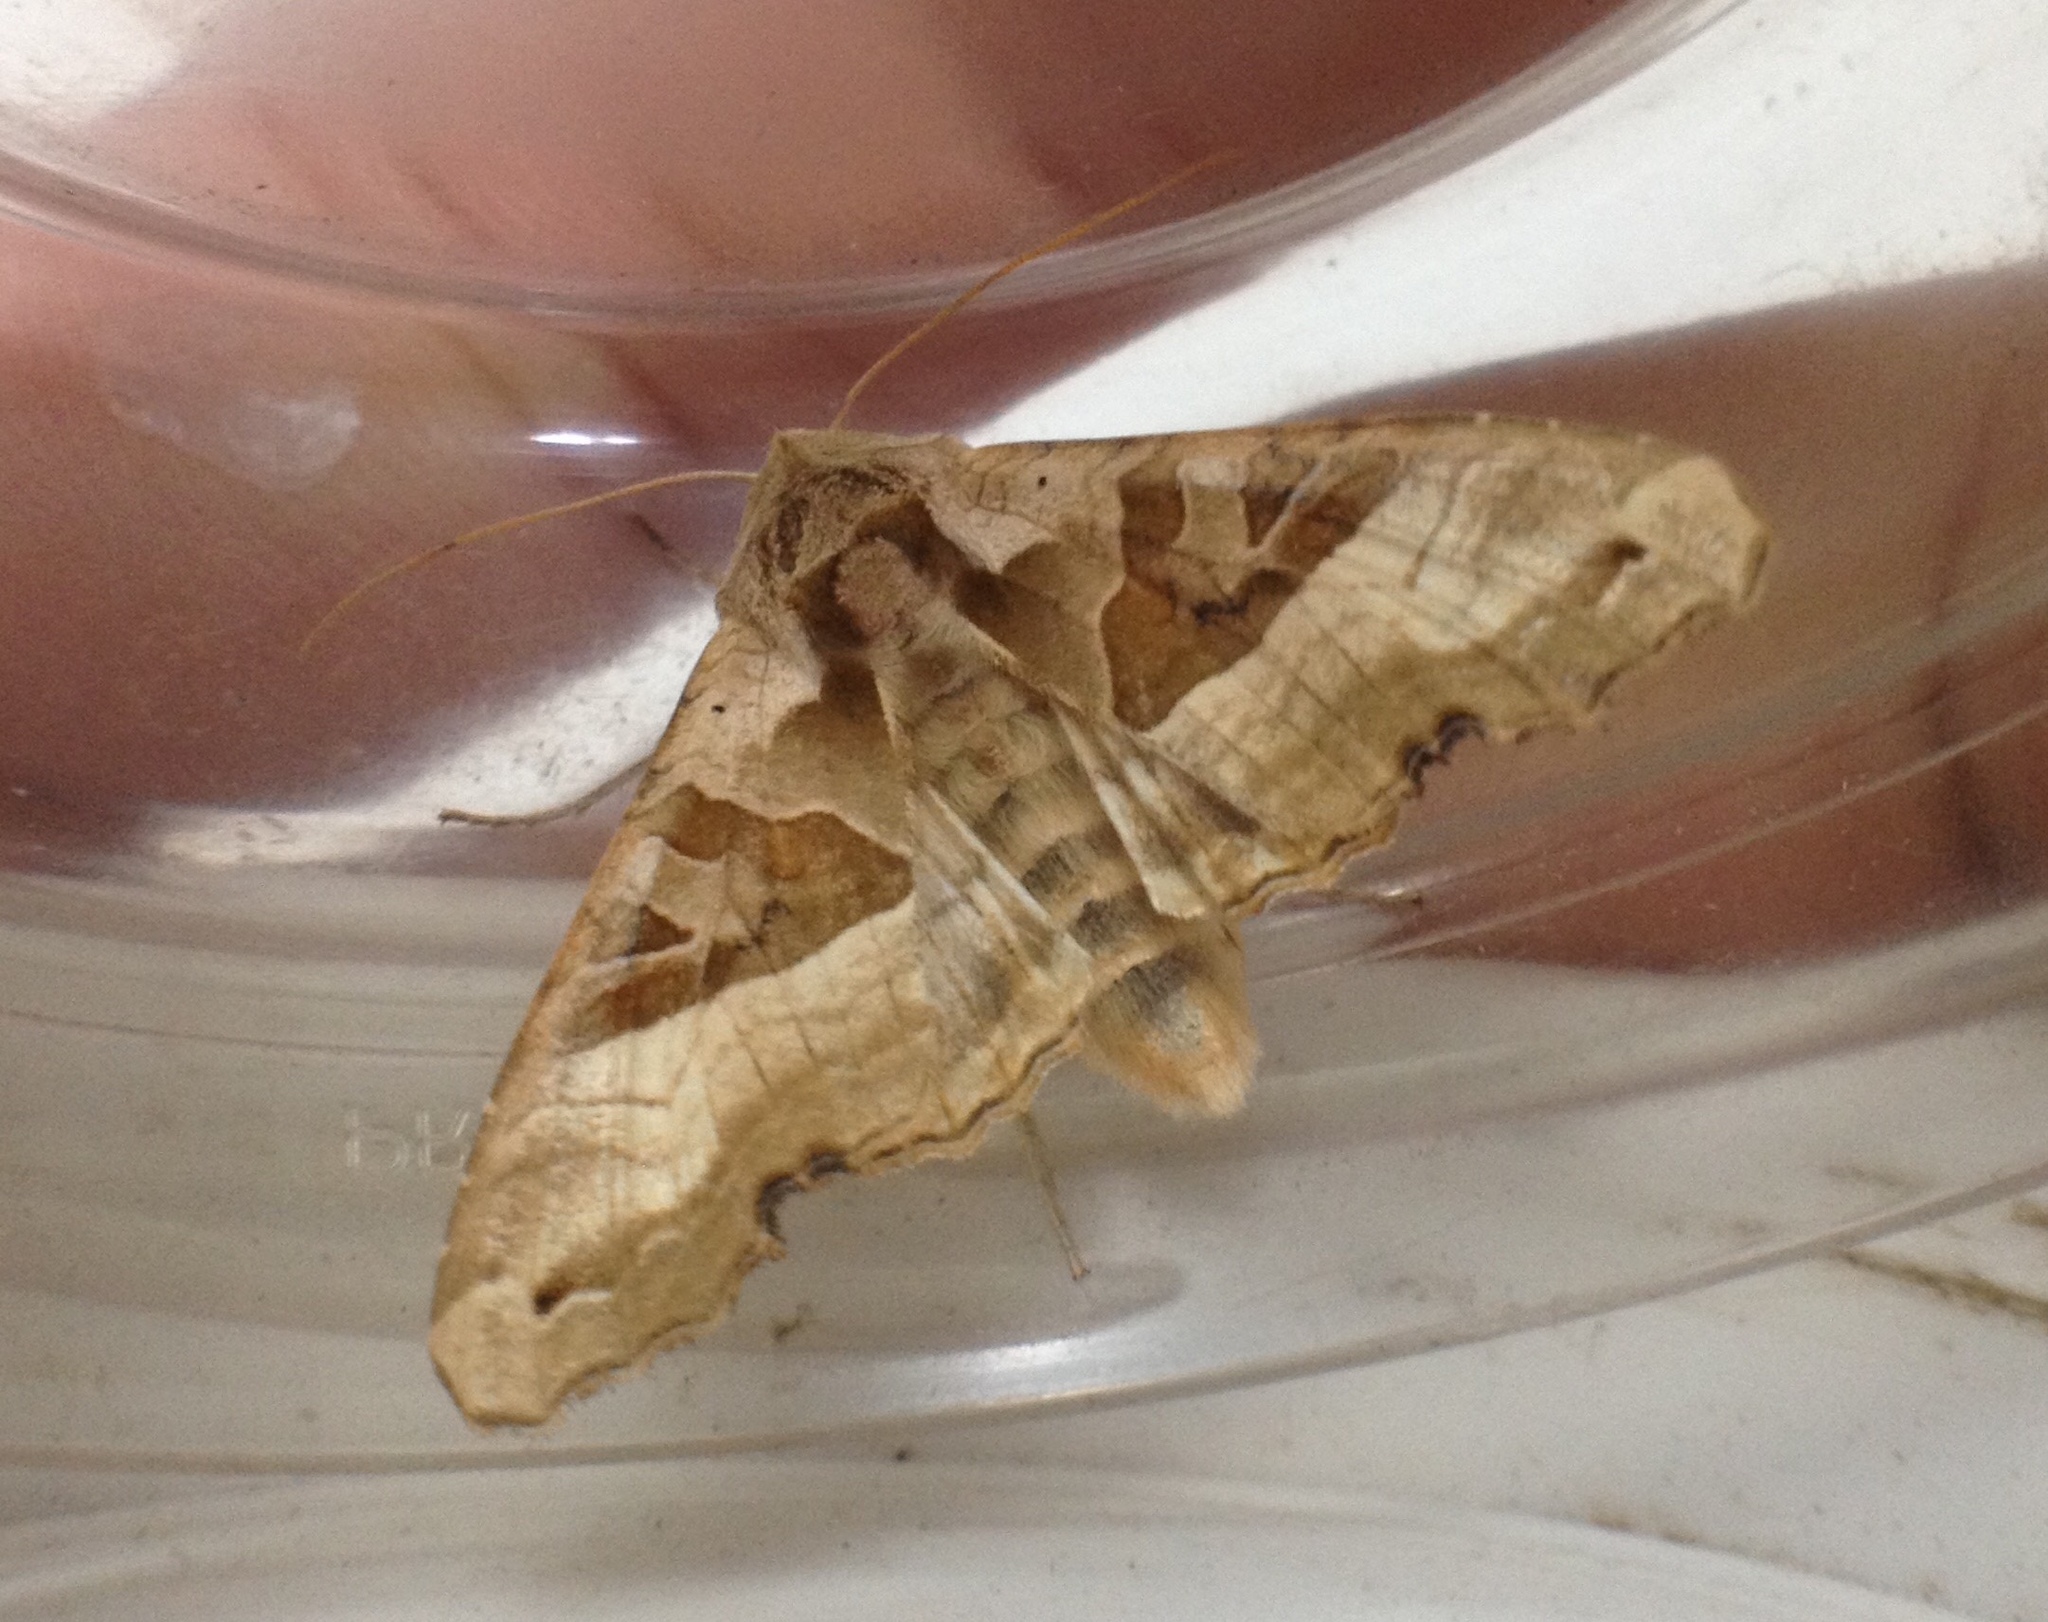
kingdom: Animalia
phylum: Arthropoda
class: Insecta
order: Lepidoptera
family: Noctuidae
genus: Phlogophora
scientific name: Phlogophora meticulosa
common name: Angle shades
